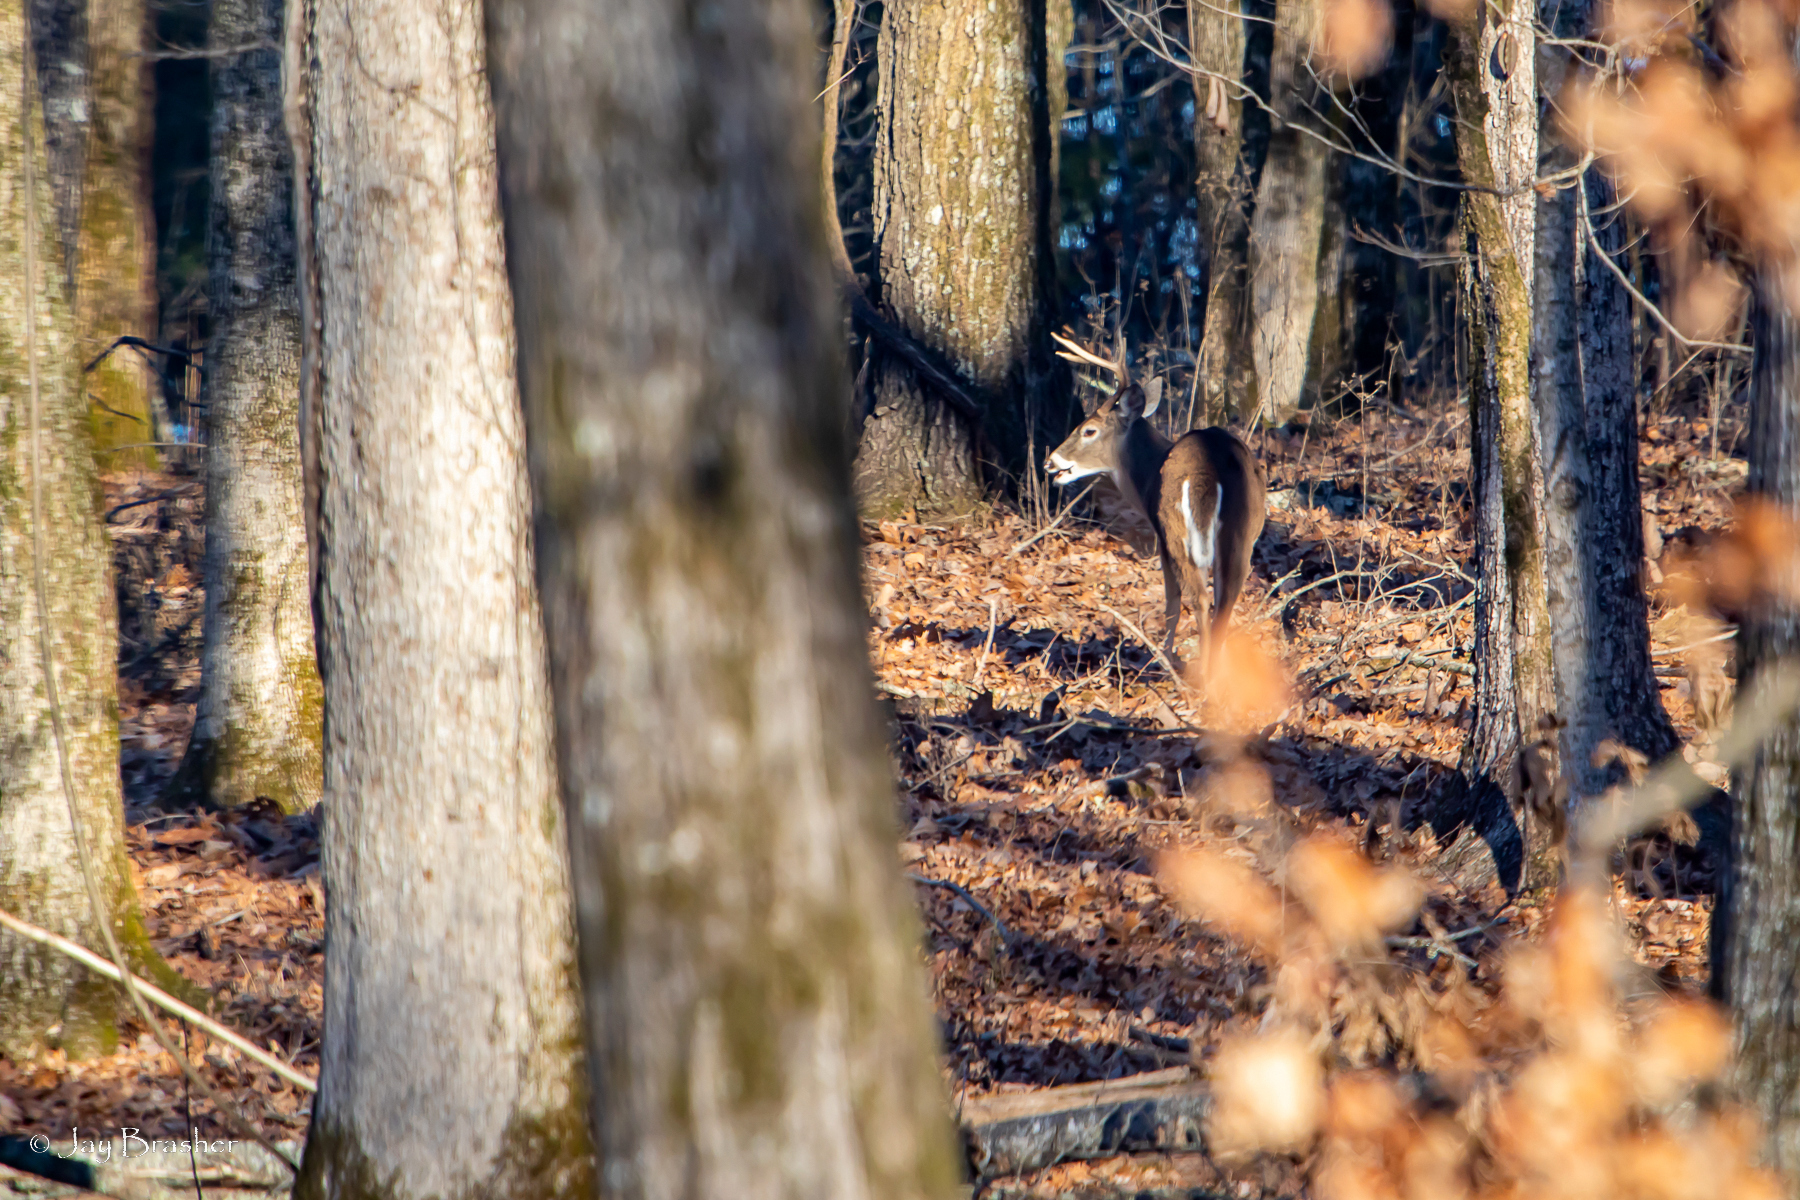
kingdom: Animalia
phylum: Chordata
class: Mammalia
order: Artiodactyla
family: Cervidae
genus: Odocoileus
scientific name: Odocoileus virginianus
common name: White-tailed deer
